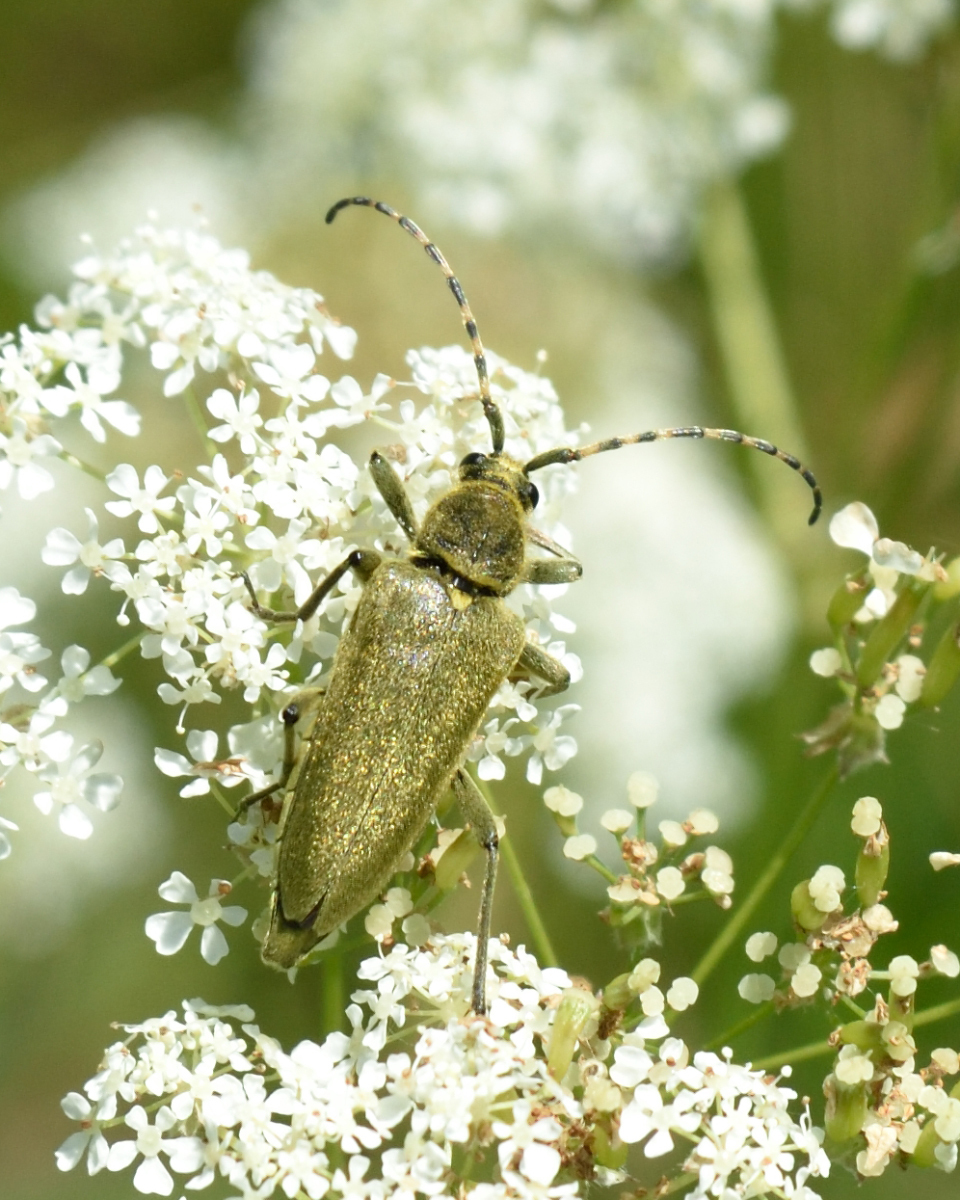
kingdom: Animalia
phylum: Arthropoda
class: Insecta
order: Coleoptera
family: Cerambycidae
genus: Lepturobosca
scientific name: Lepturobosca virens
